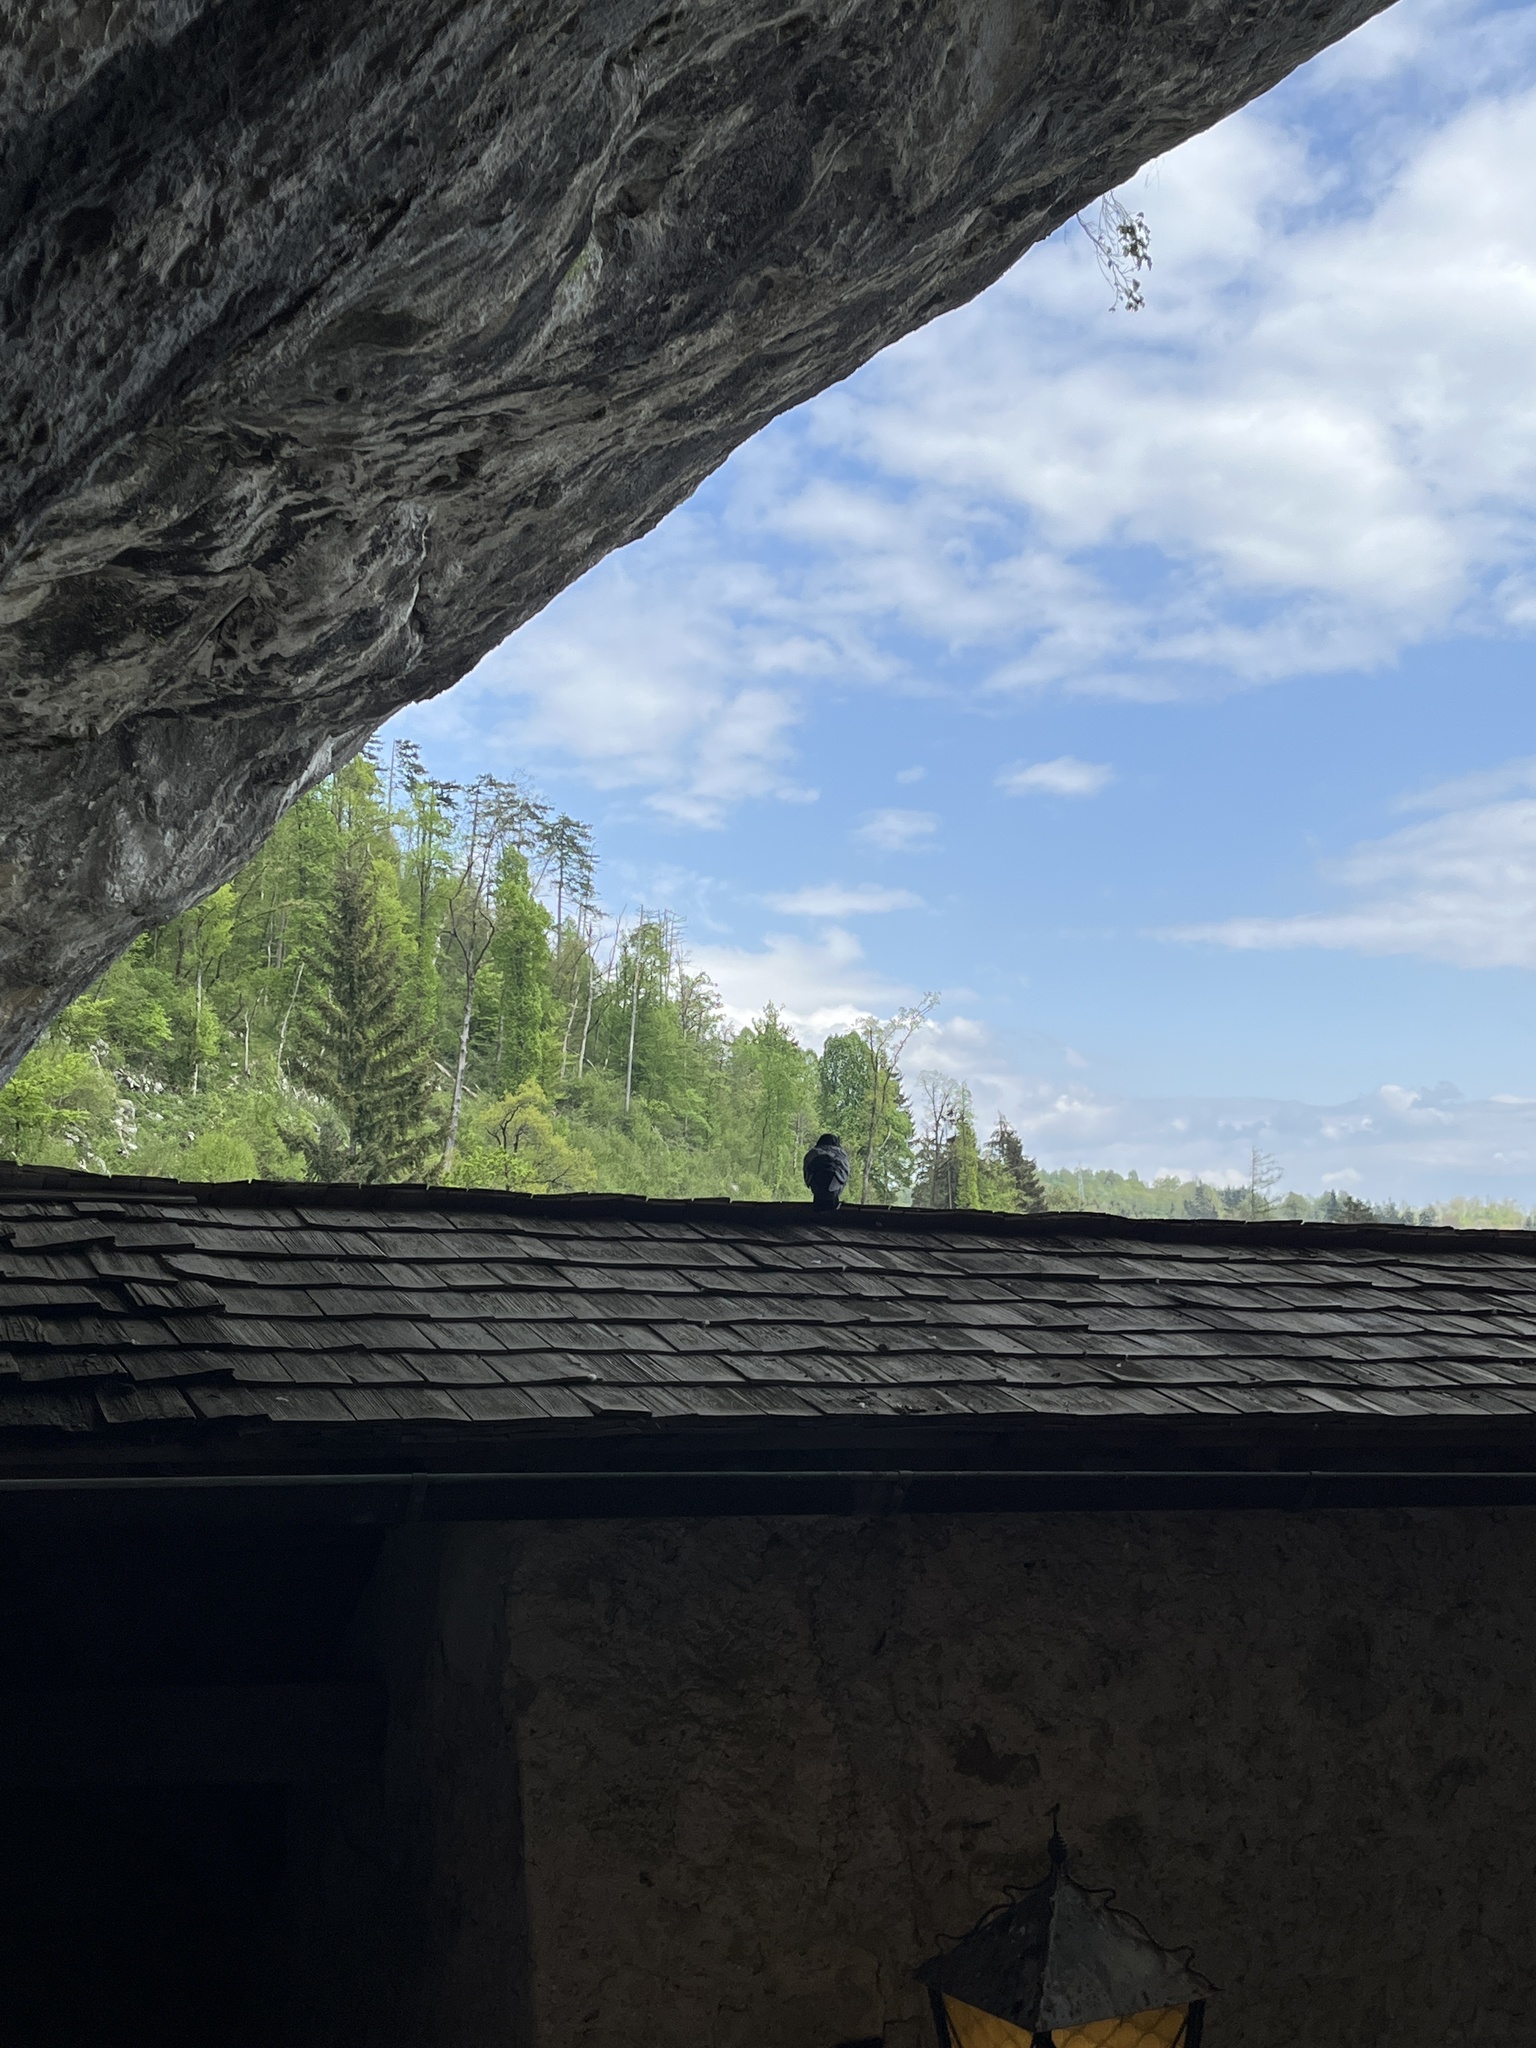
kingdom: Animalia
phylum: Chordata
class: Aves
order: Columbiformes
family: Columbidae
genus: Columba
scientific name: Columba livia
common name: Rock pigeon
